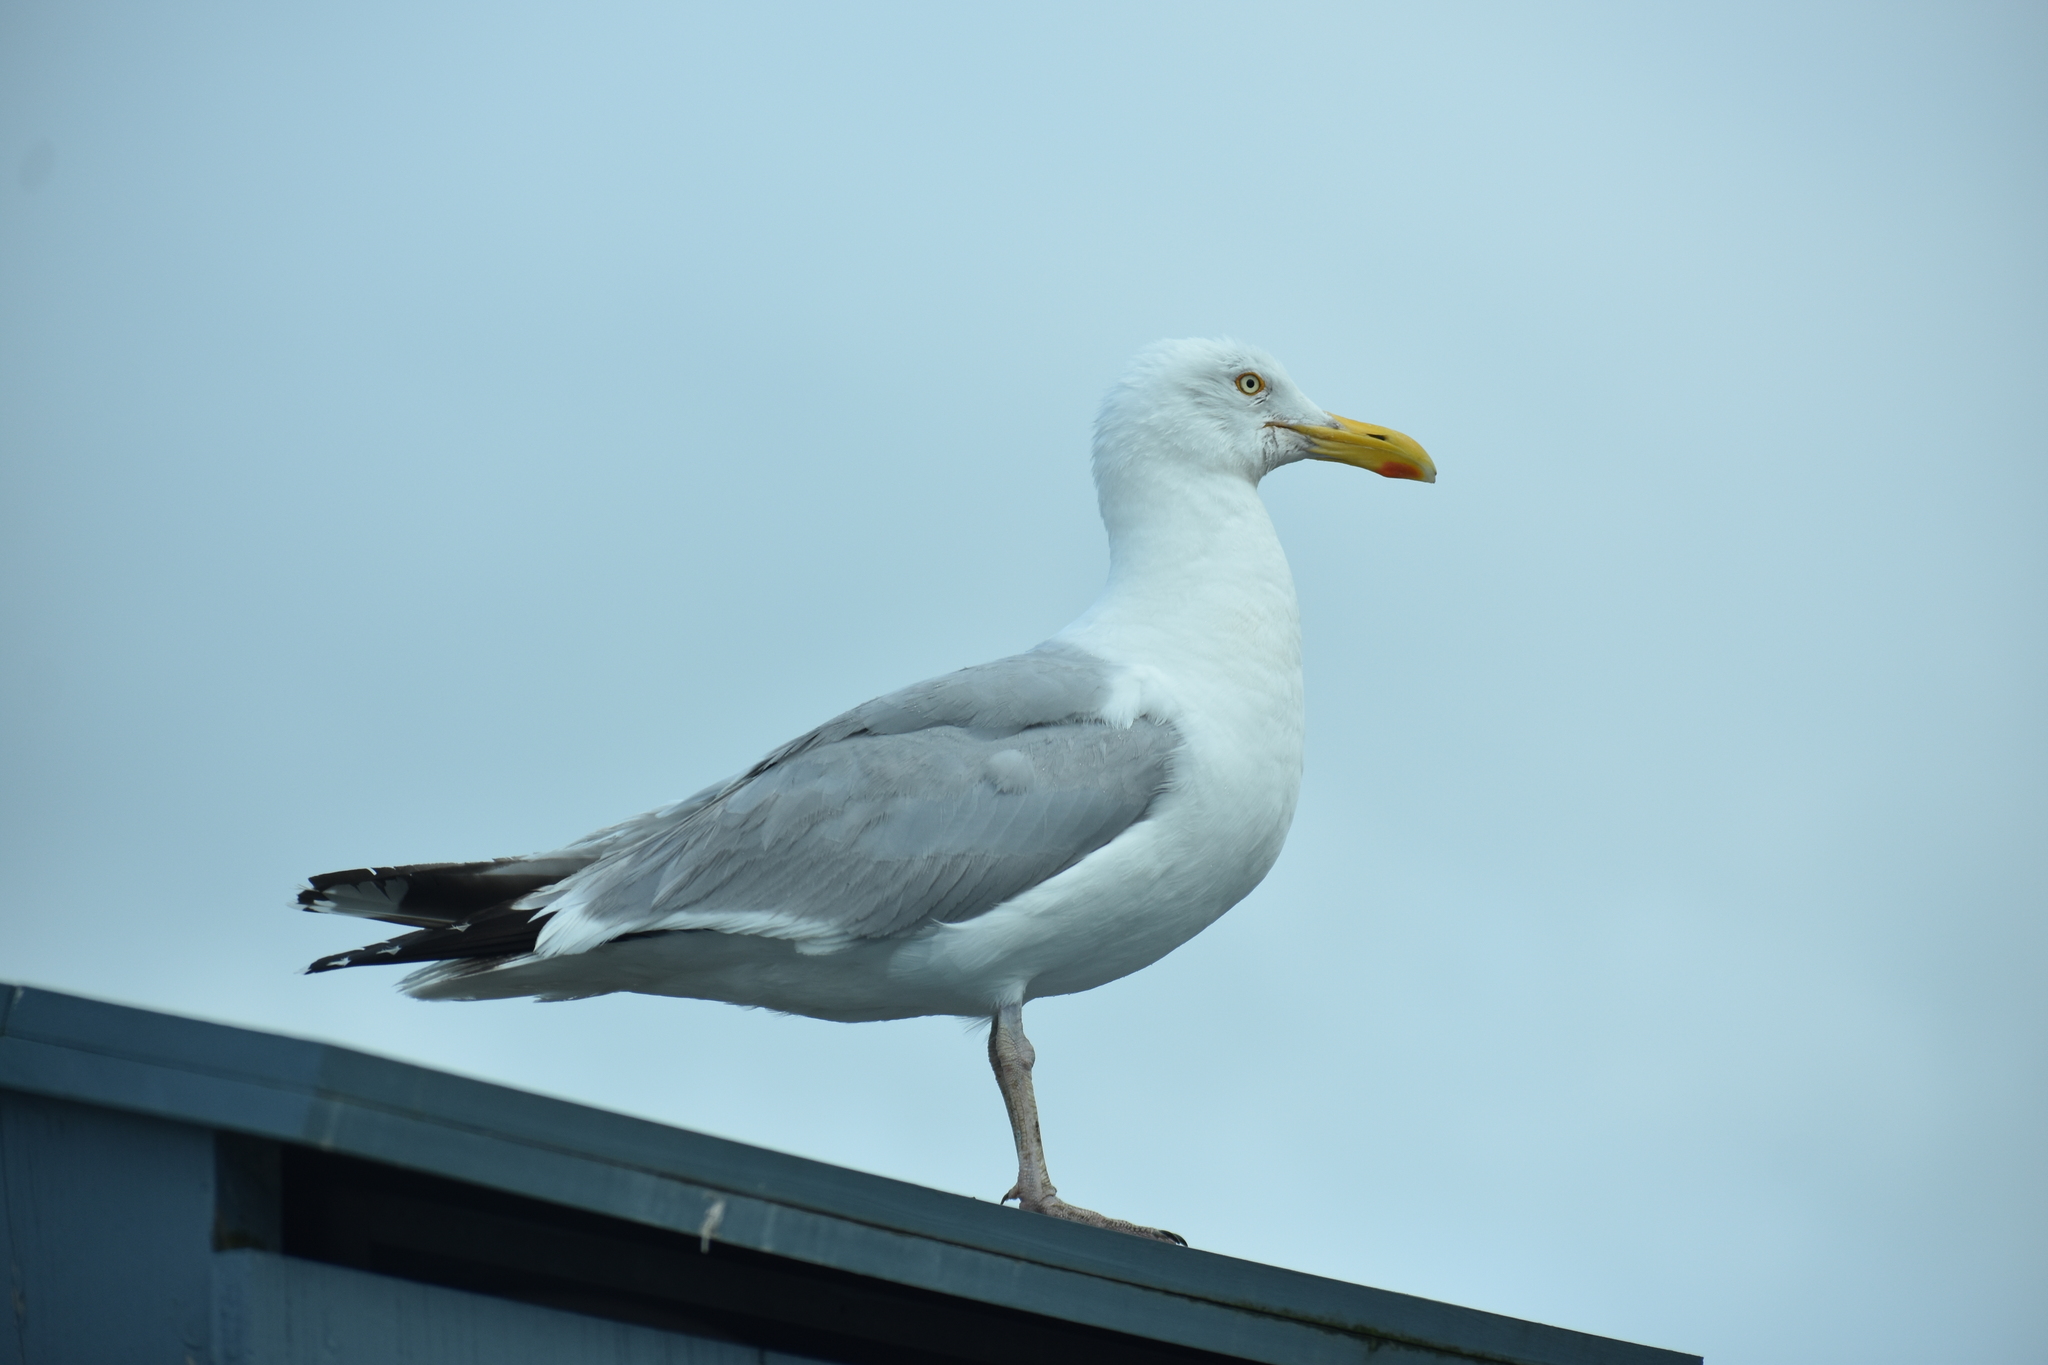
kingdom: Animalia
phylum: Chordata
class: Aves
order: Charadriiformes
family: Laridae
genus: Larus
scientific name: Larus argentatus
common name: Herring gull
